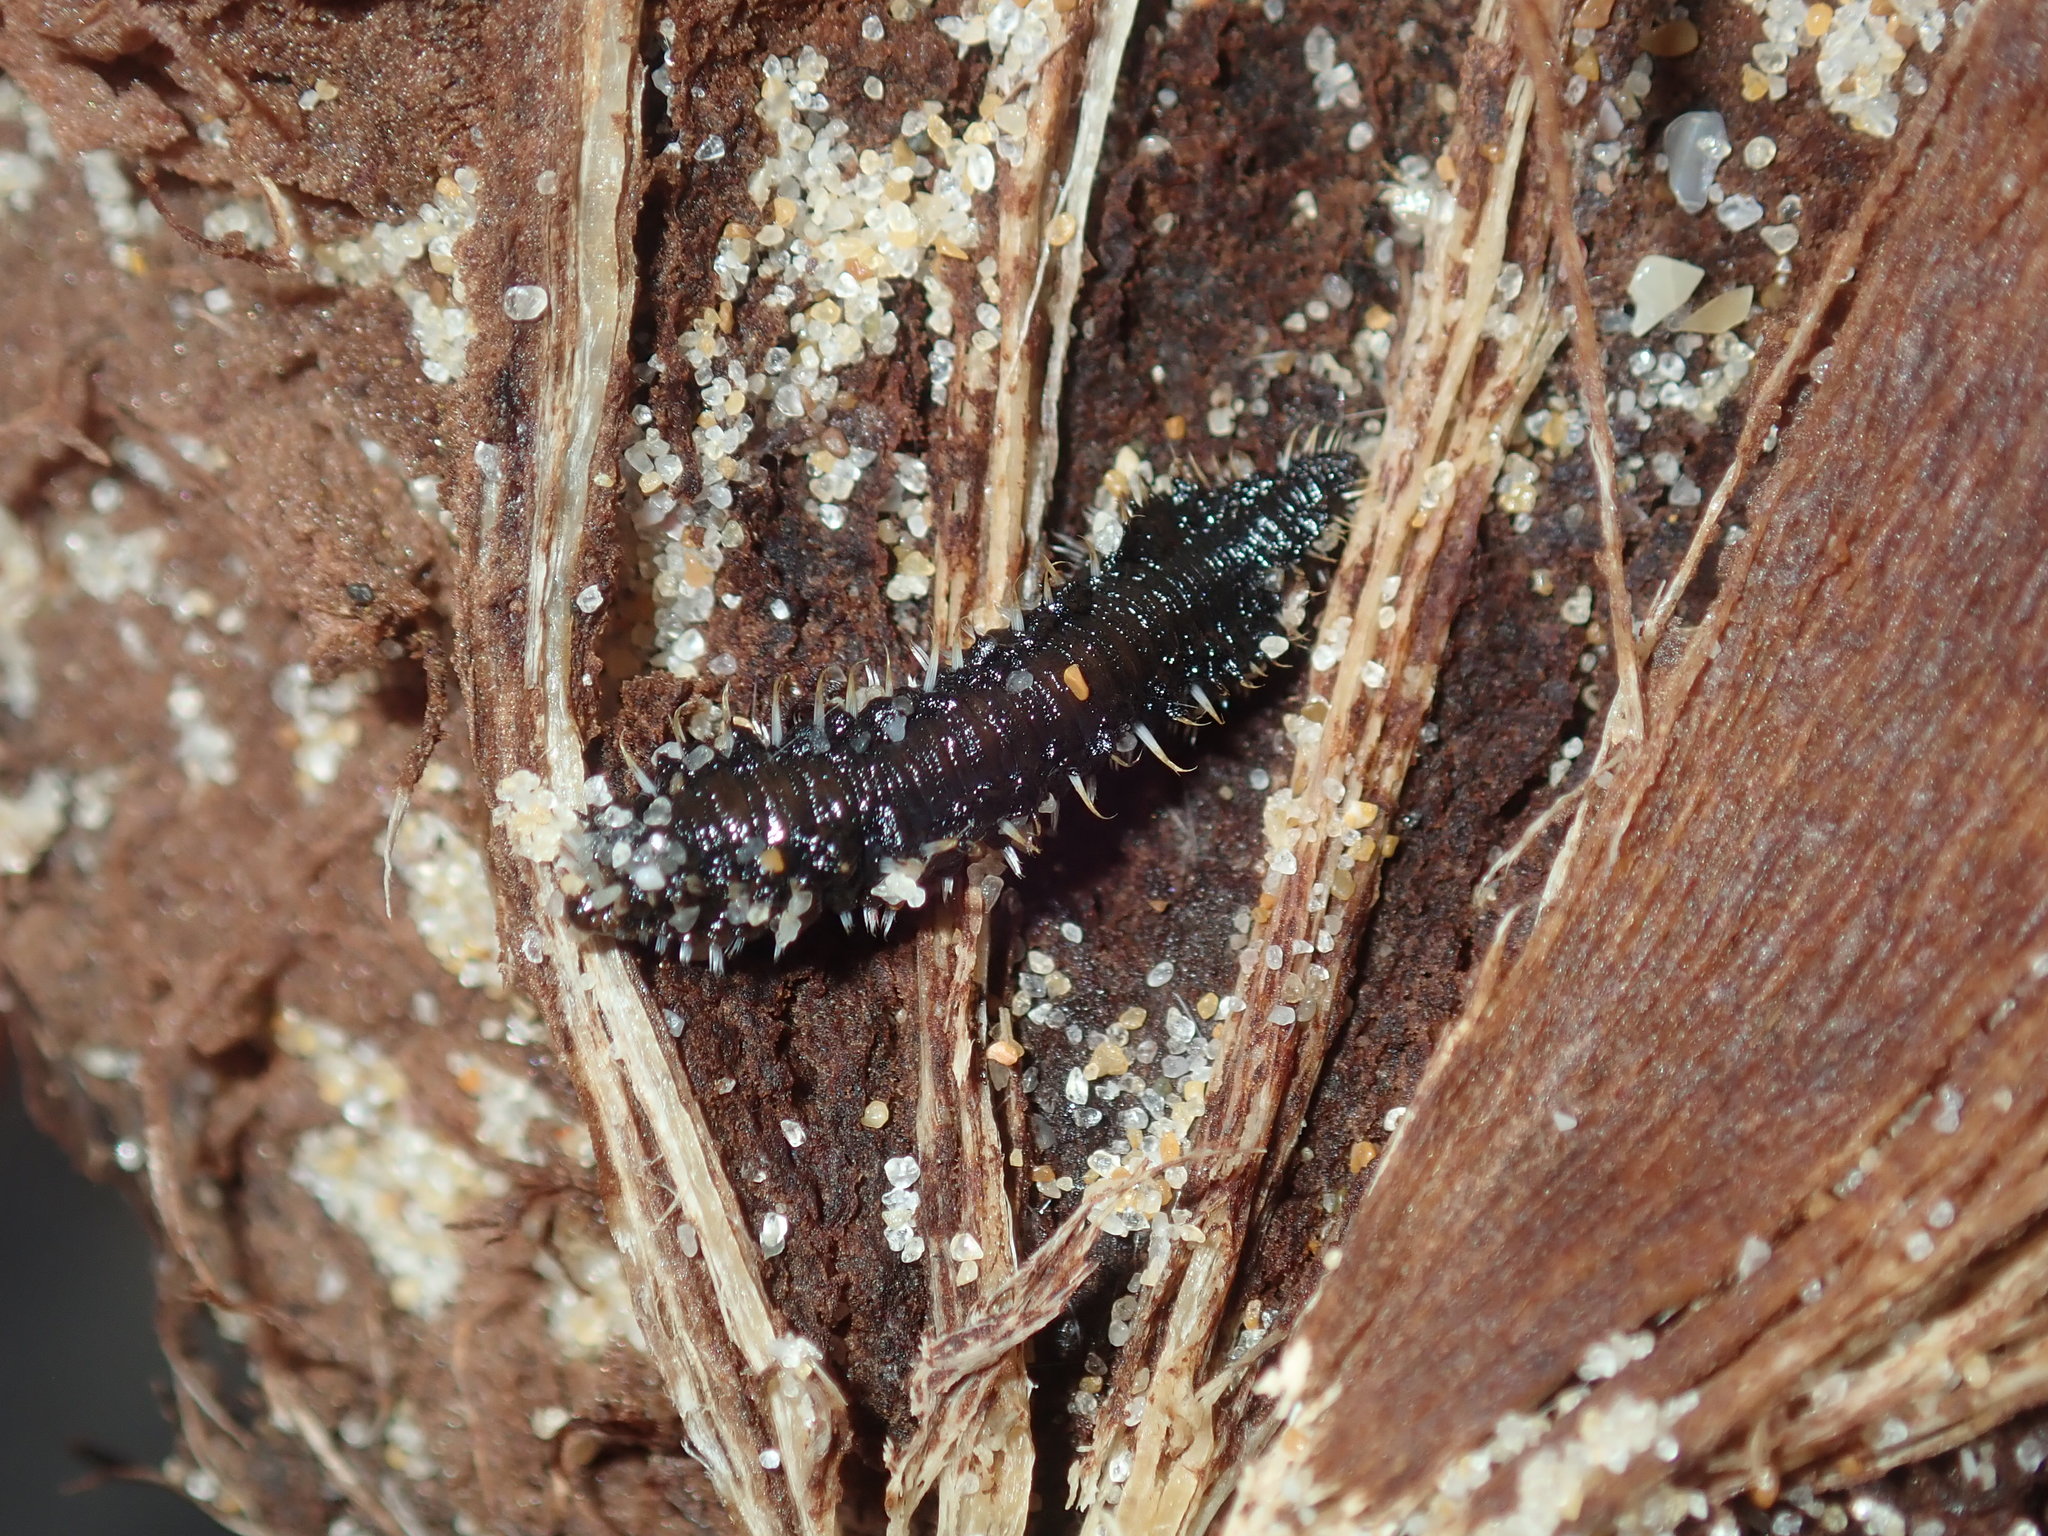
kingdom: Animalia
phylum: Annelida
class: Polychaeta
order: Amphinomida
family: Amphinomidae
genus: Amphinome
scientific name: Amphinome rostrata
